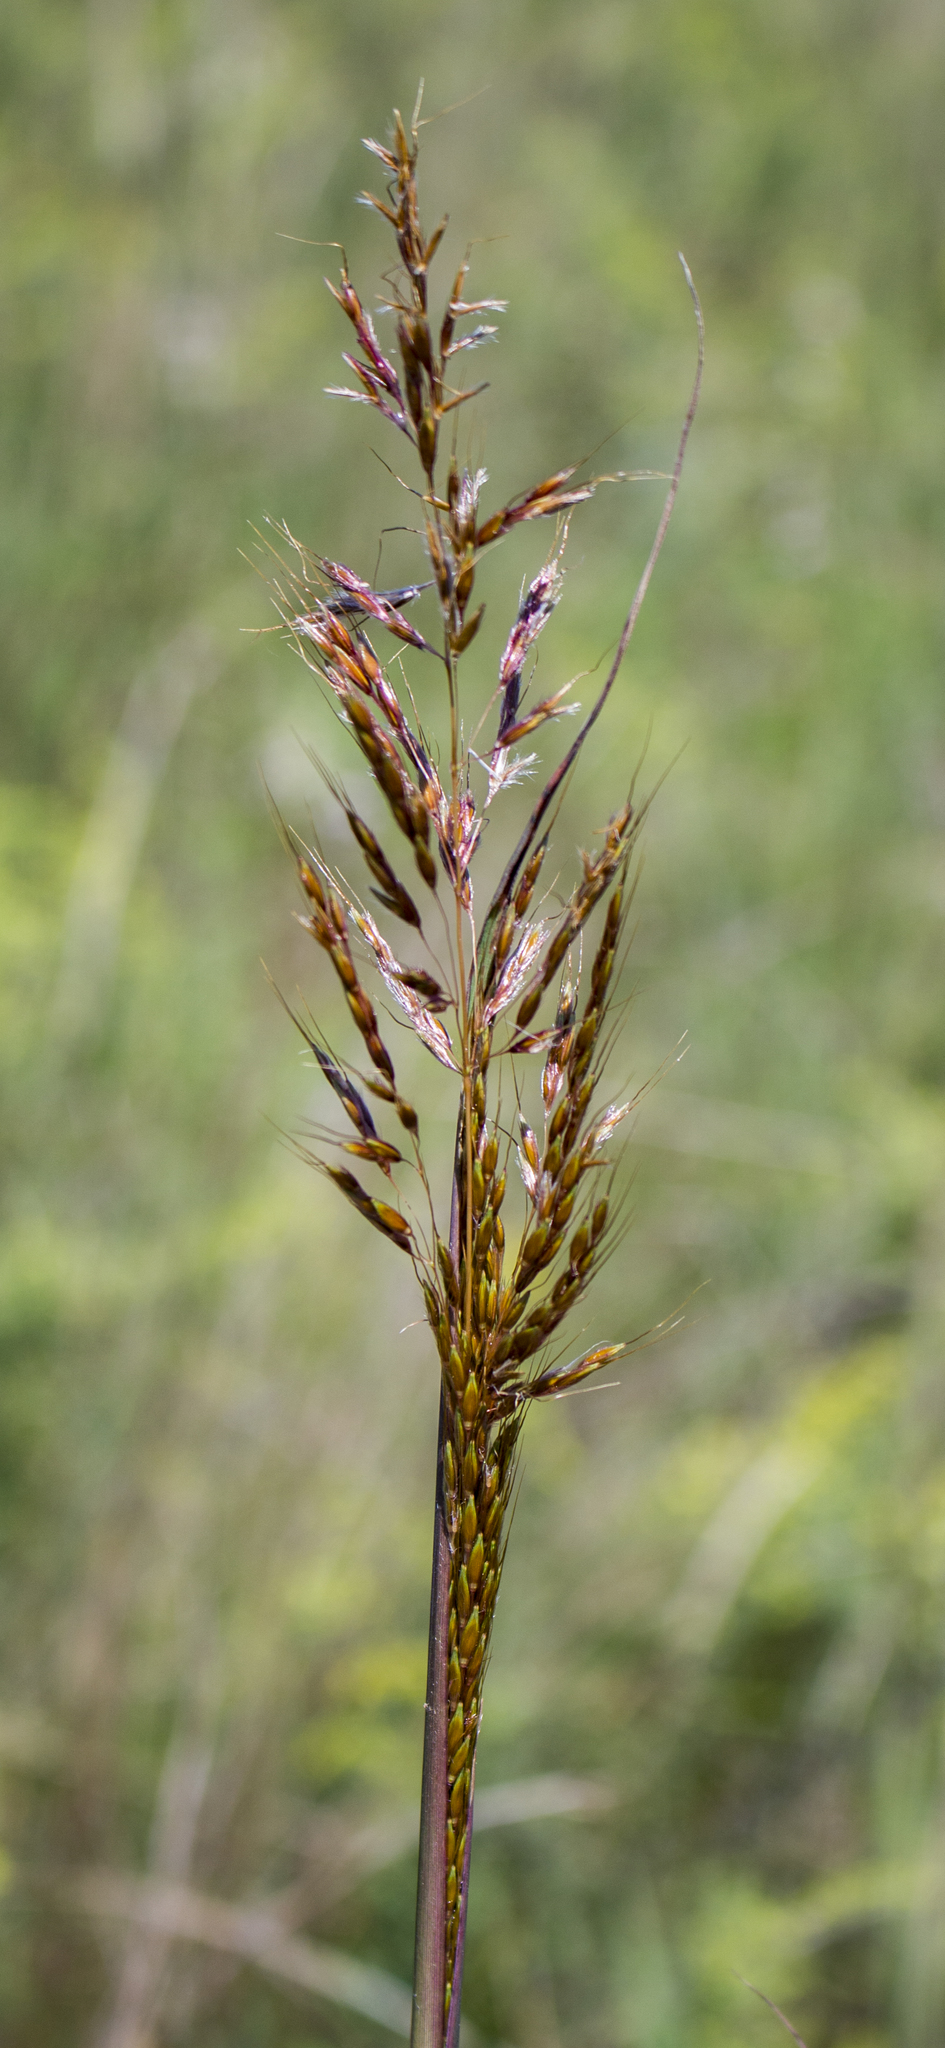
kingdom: Plantae
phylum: Tracheophyta
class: Liliopsida
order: Poales
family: Poaceae
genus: Sorghastrum
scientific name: Sorghastrum nutans
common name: Indian grass
